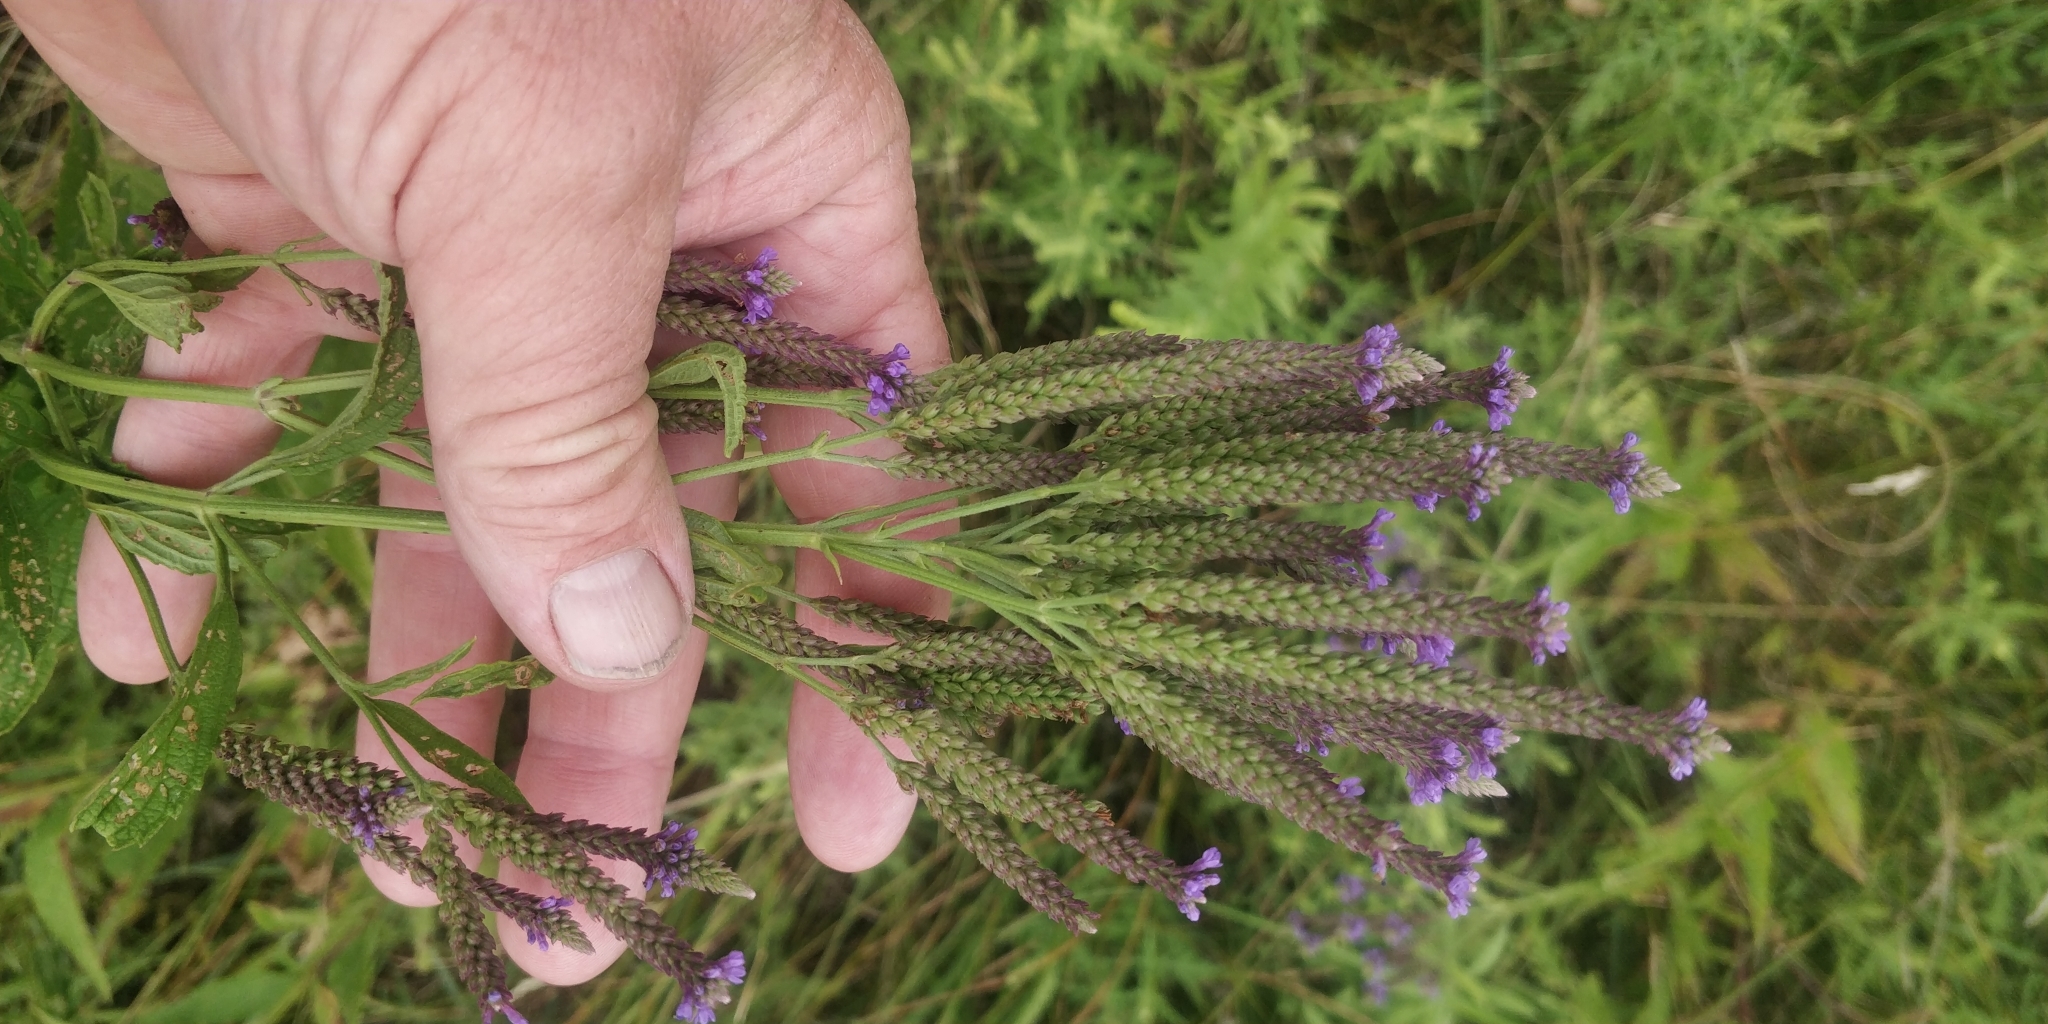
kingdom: Plantae
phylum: Tracheophyta
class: Magnoliopsida
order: Lamiales
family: Verbenaceae
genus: Verbena
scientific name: Verbena hastata
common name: American blue vervain
